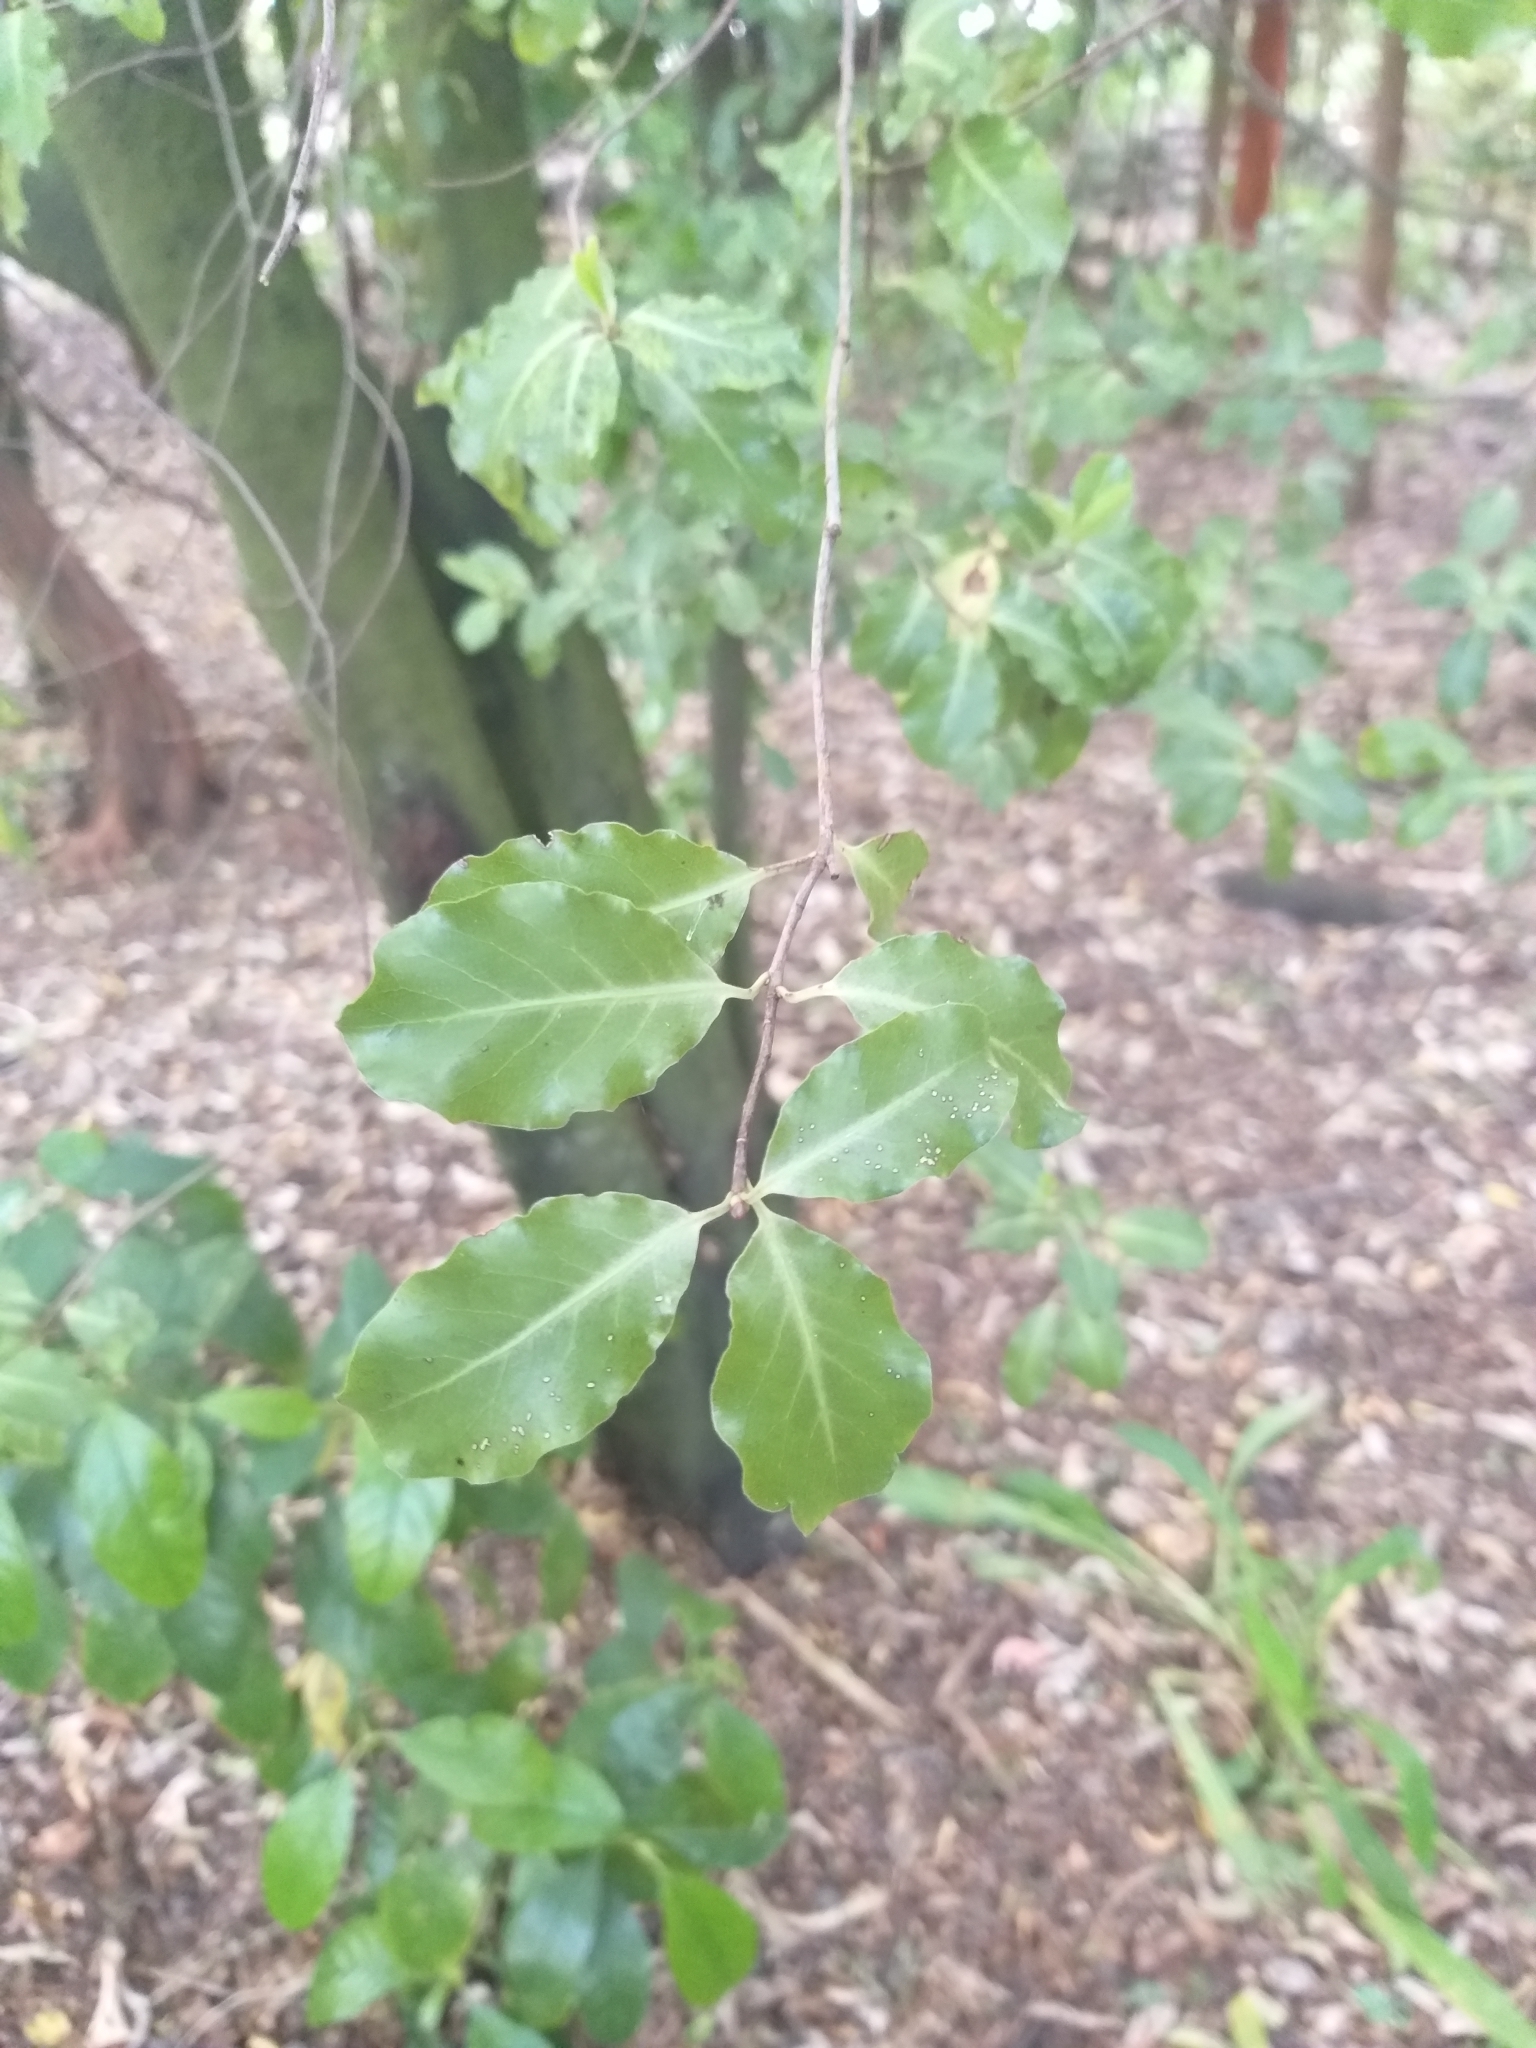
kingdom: Plantae
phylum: Tracheophyta
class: Magnoliopsida
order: Apiales
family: Pittosporaceae
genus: Pittosporum
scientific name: Pittosporum tenuifolium
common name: Kohuhu
